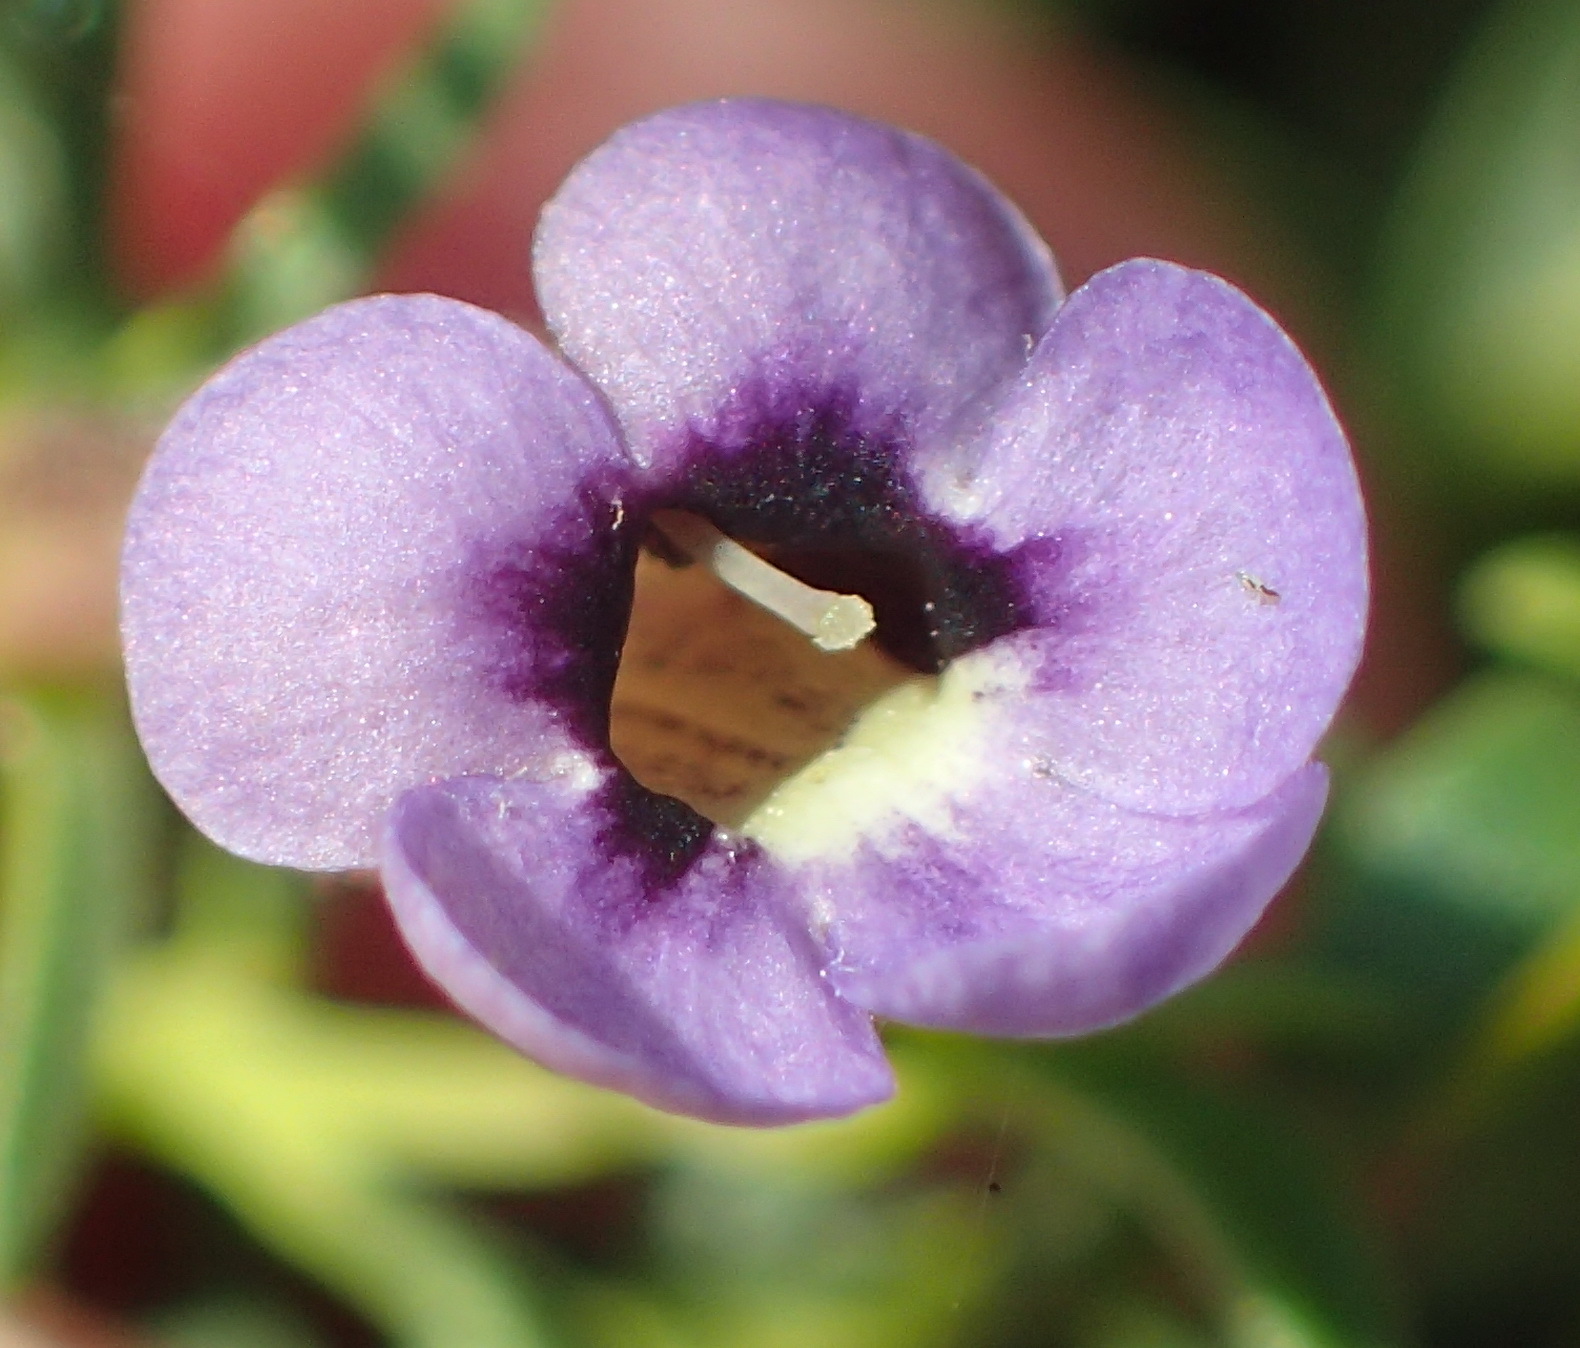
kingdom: Plantae
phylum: Tracheophyta
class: Magnoliopsida
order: Lamiales
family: Scrophulariaceae
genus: Peliostomum
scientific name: Peliostomum leucorrhizum
